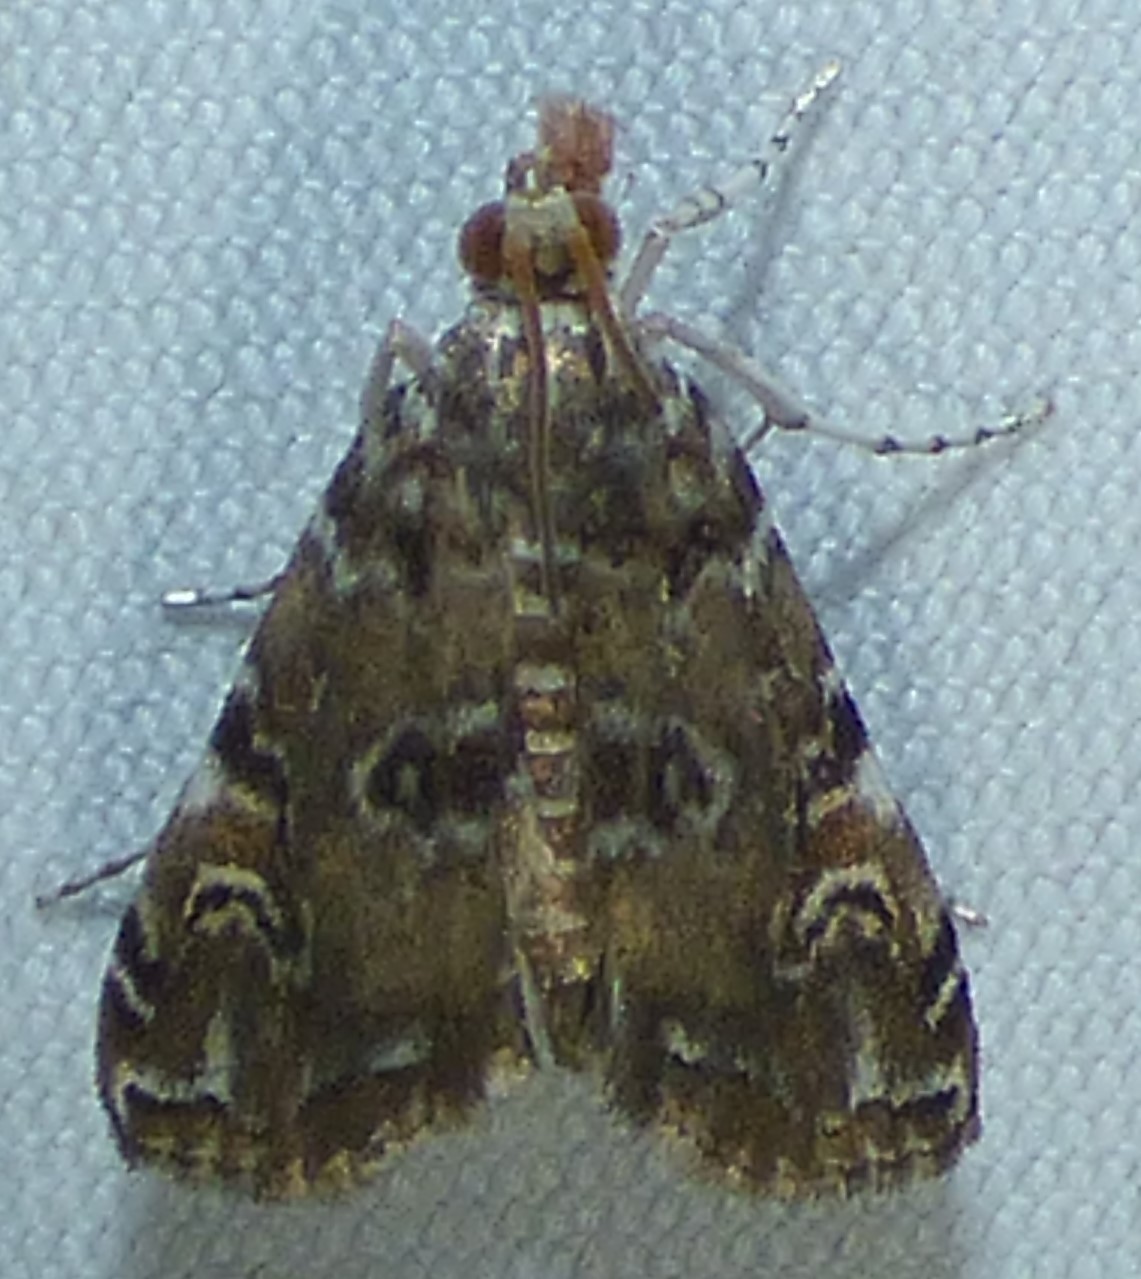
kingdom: Animalia
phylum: Arthropoda
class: Insecta
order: Lepidoptera
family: Crambidae
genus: Elophila
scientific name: Elophila gyralis
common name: Waterlily borer moth
